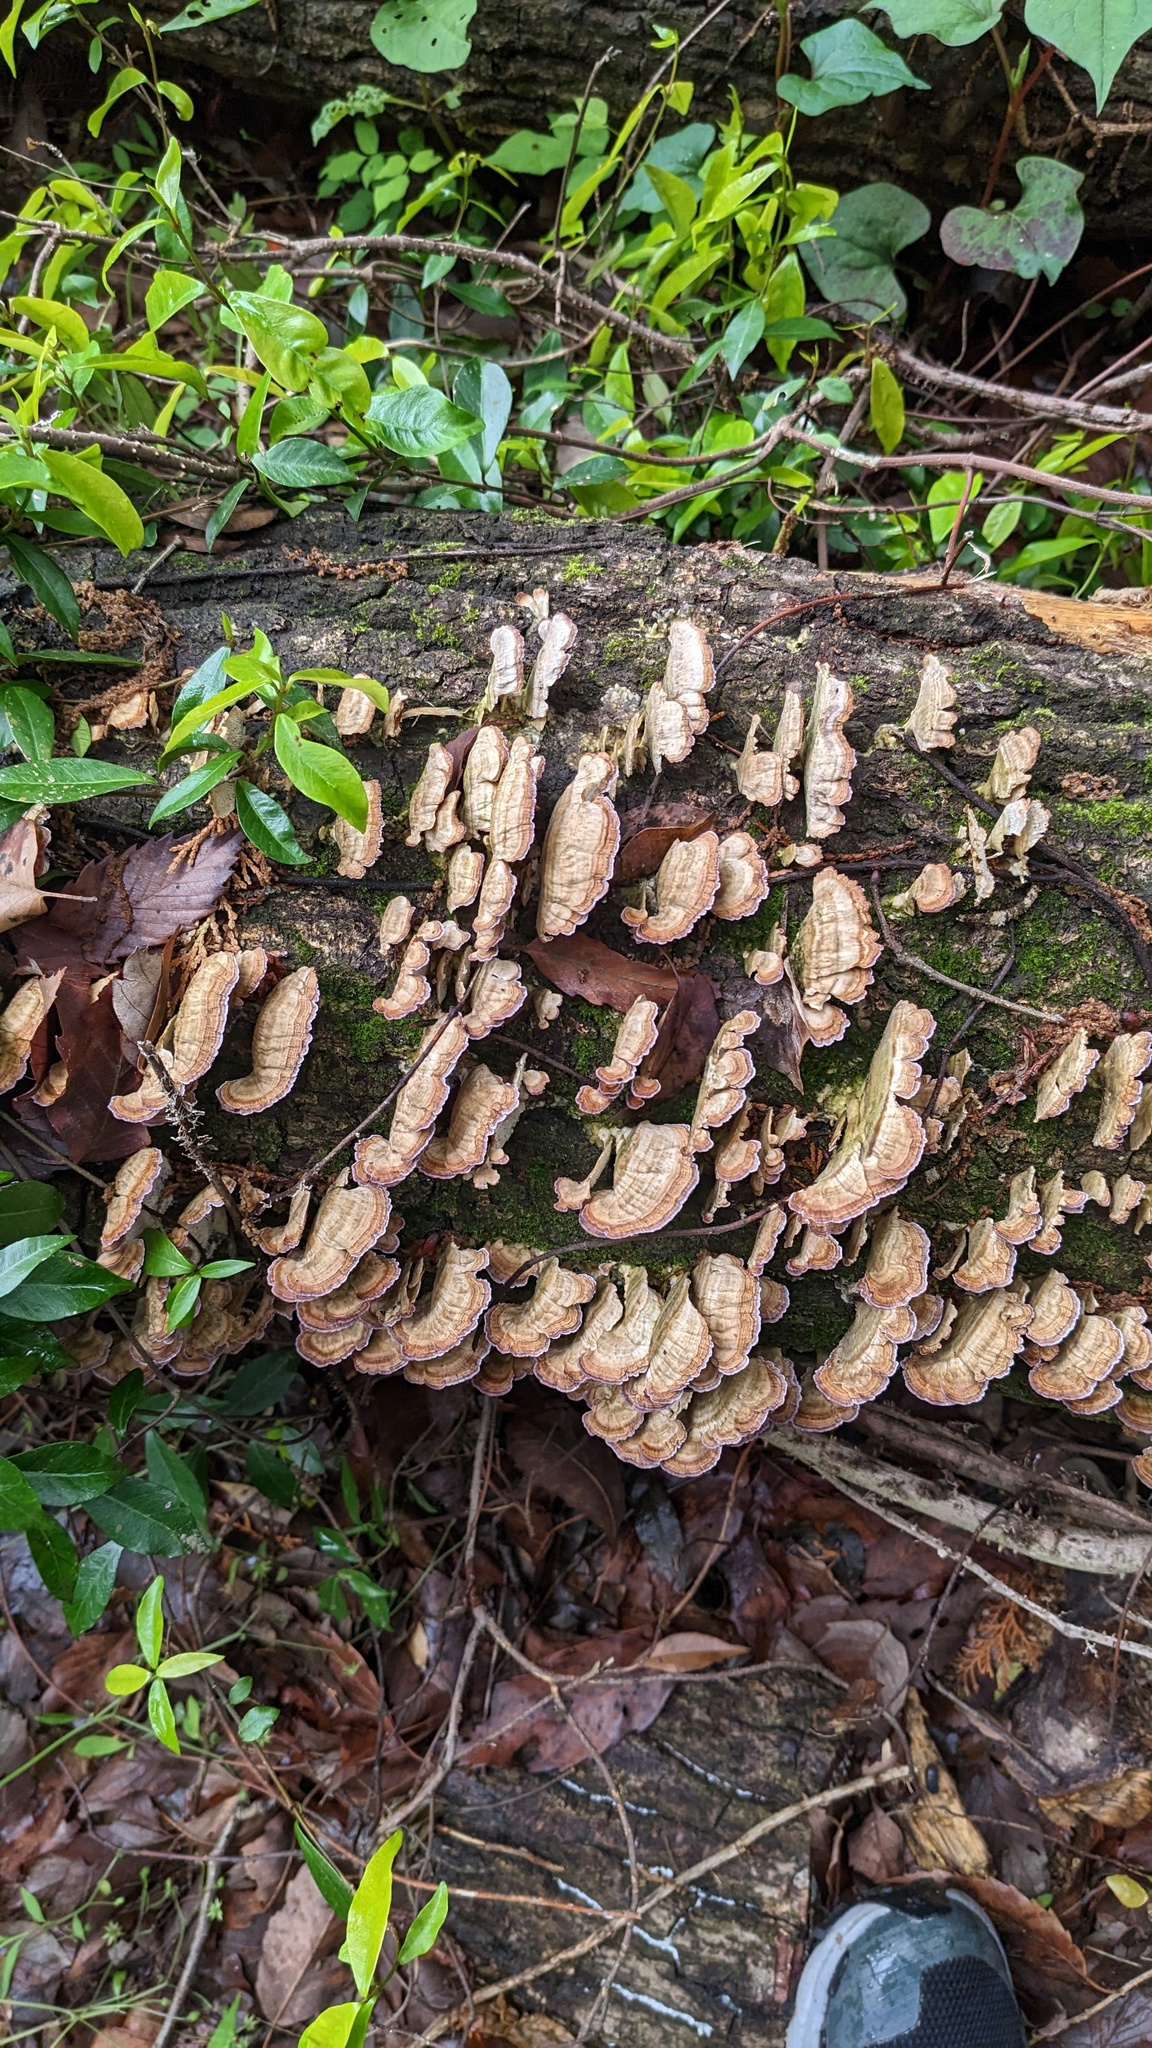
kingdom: Fungi
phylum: Basidiomycota
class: Agaricomycetes
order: Hymenochaetales
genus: Trichaptum
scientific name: Trichaptum biforme
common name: Violet-toothed polypore
